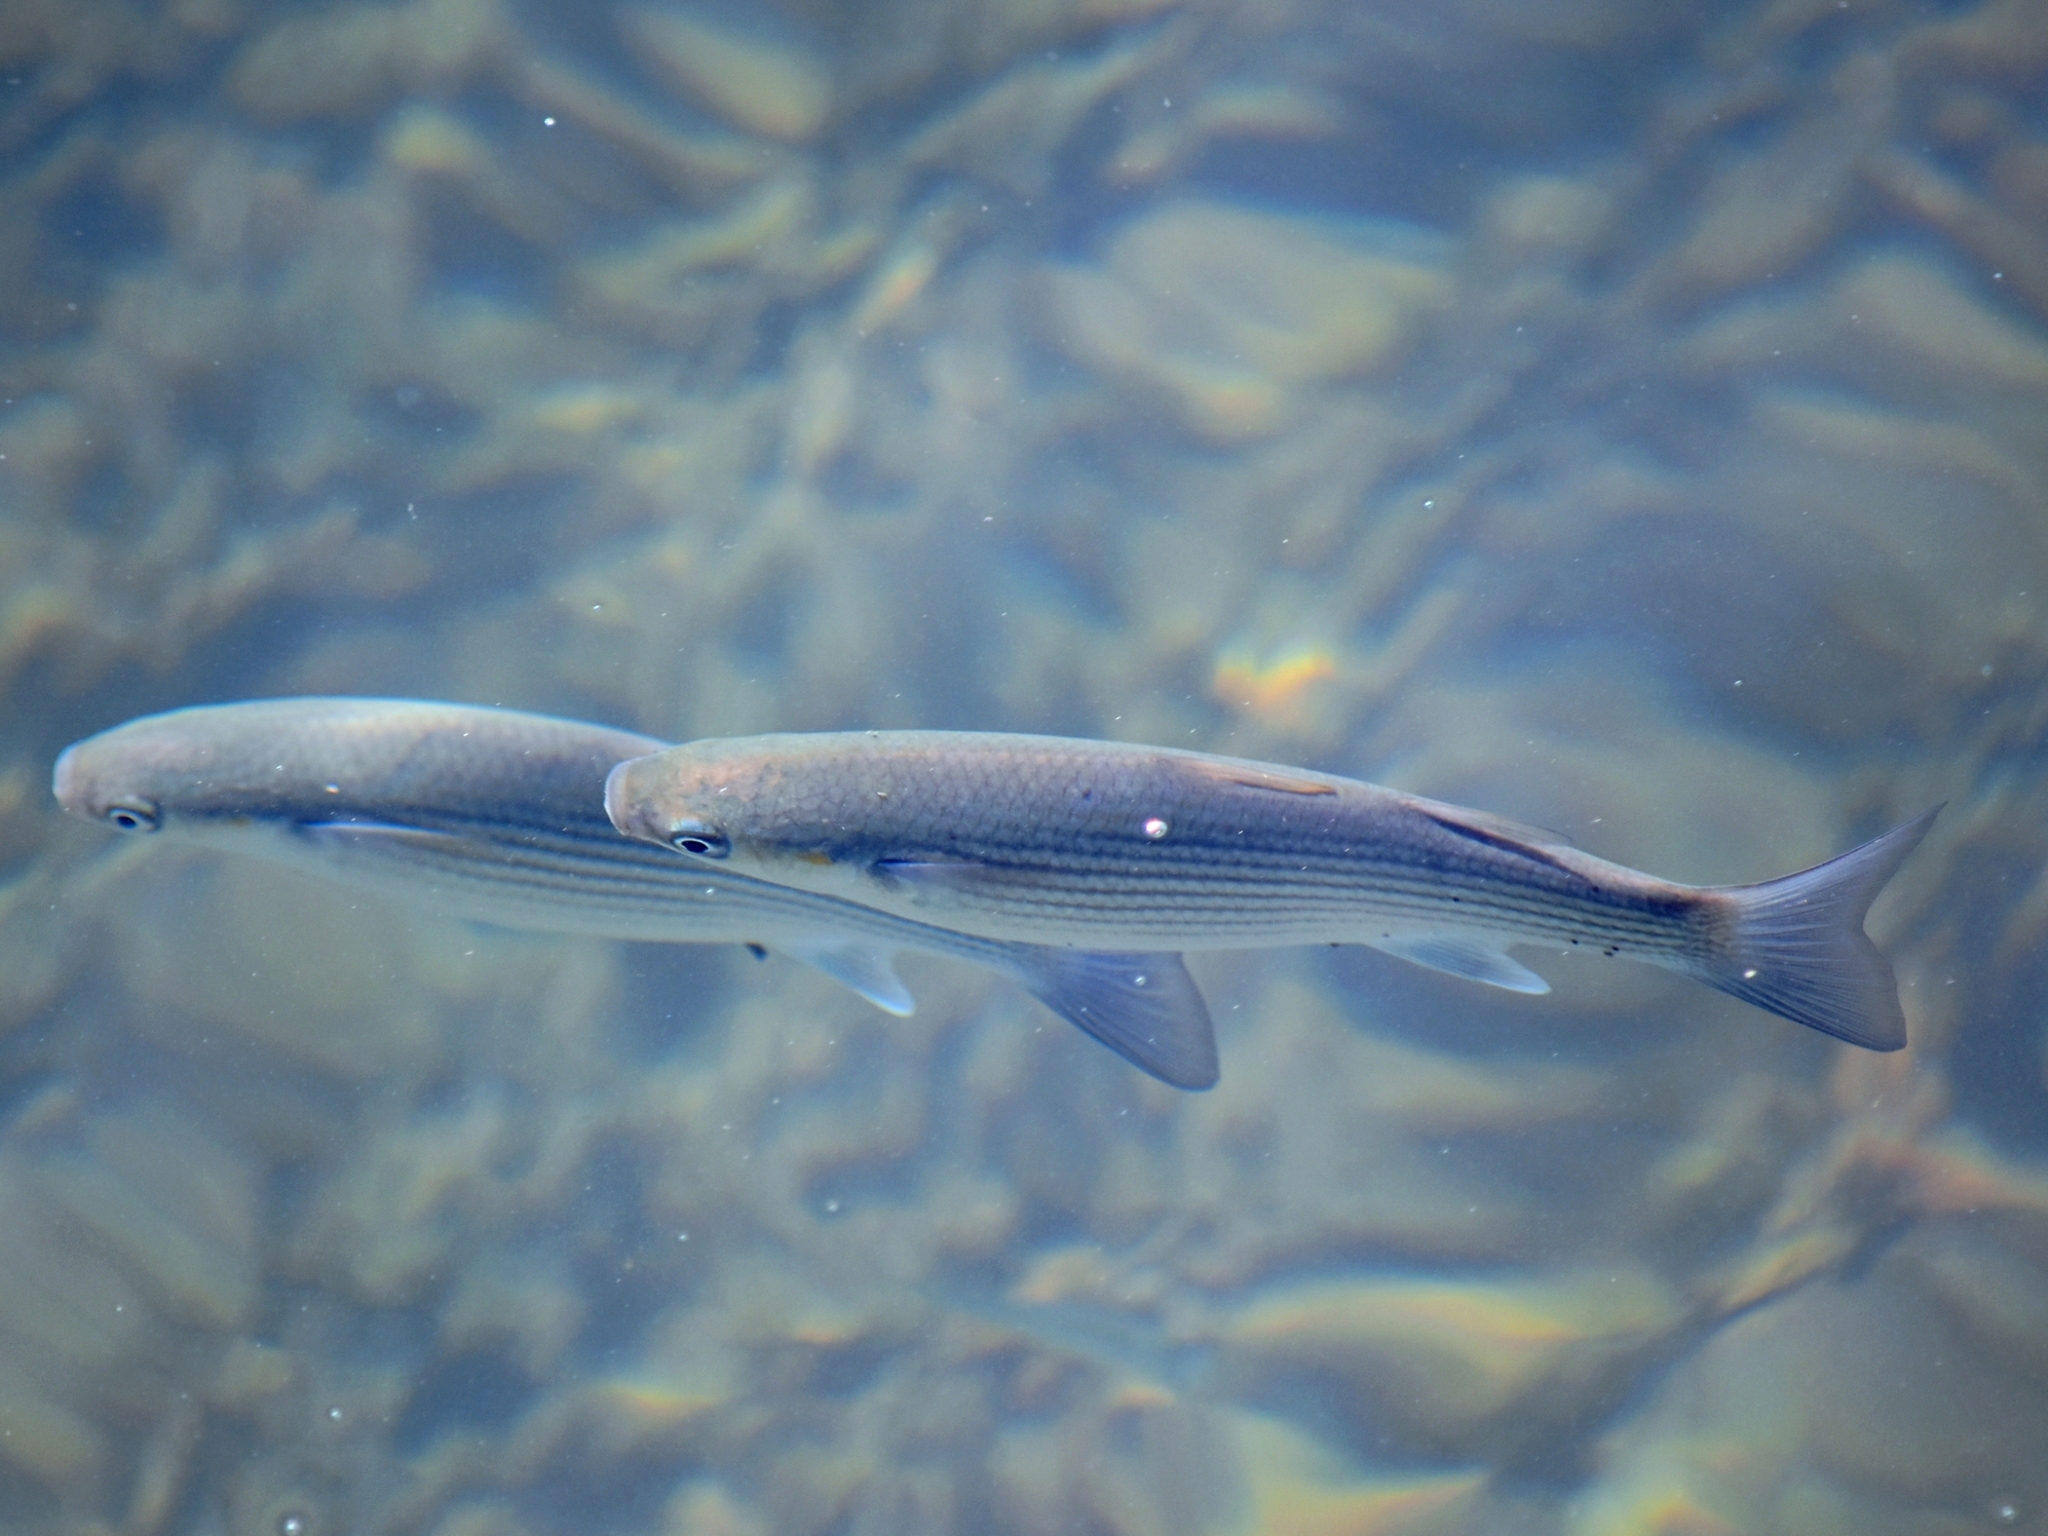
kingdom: Animalia
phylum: Chordata
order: Mugiliformes
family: Mugilidae
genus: Chelon
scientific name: Chelon labrosus
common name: Thick-lipped mullet
